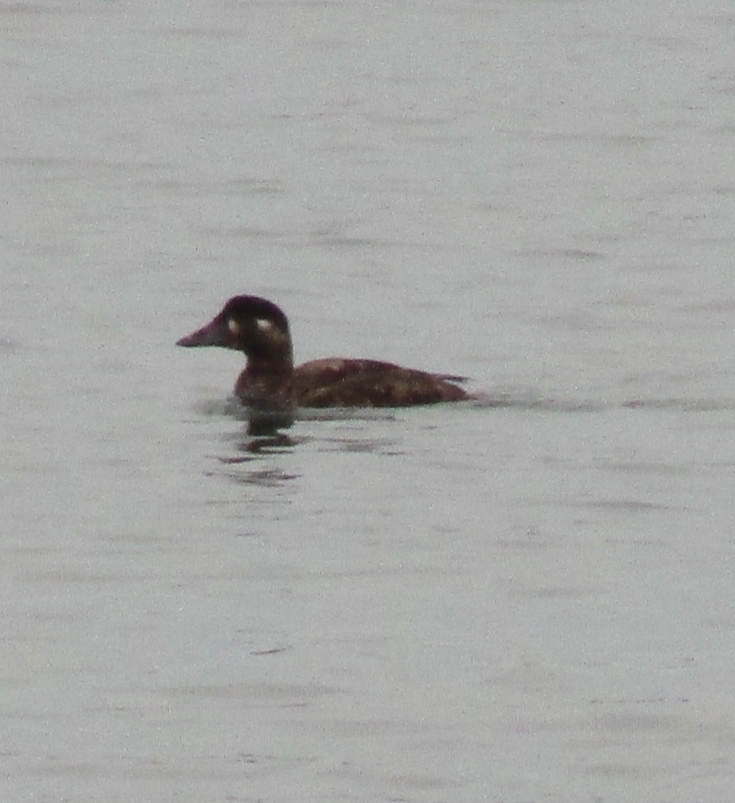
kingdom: Animalia
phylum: Chordata
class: Aves
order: Anseriformes
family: Anatidae
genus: Melanitta
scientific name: Melanitta perspicillata
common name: Surf scoter
